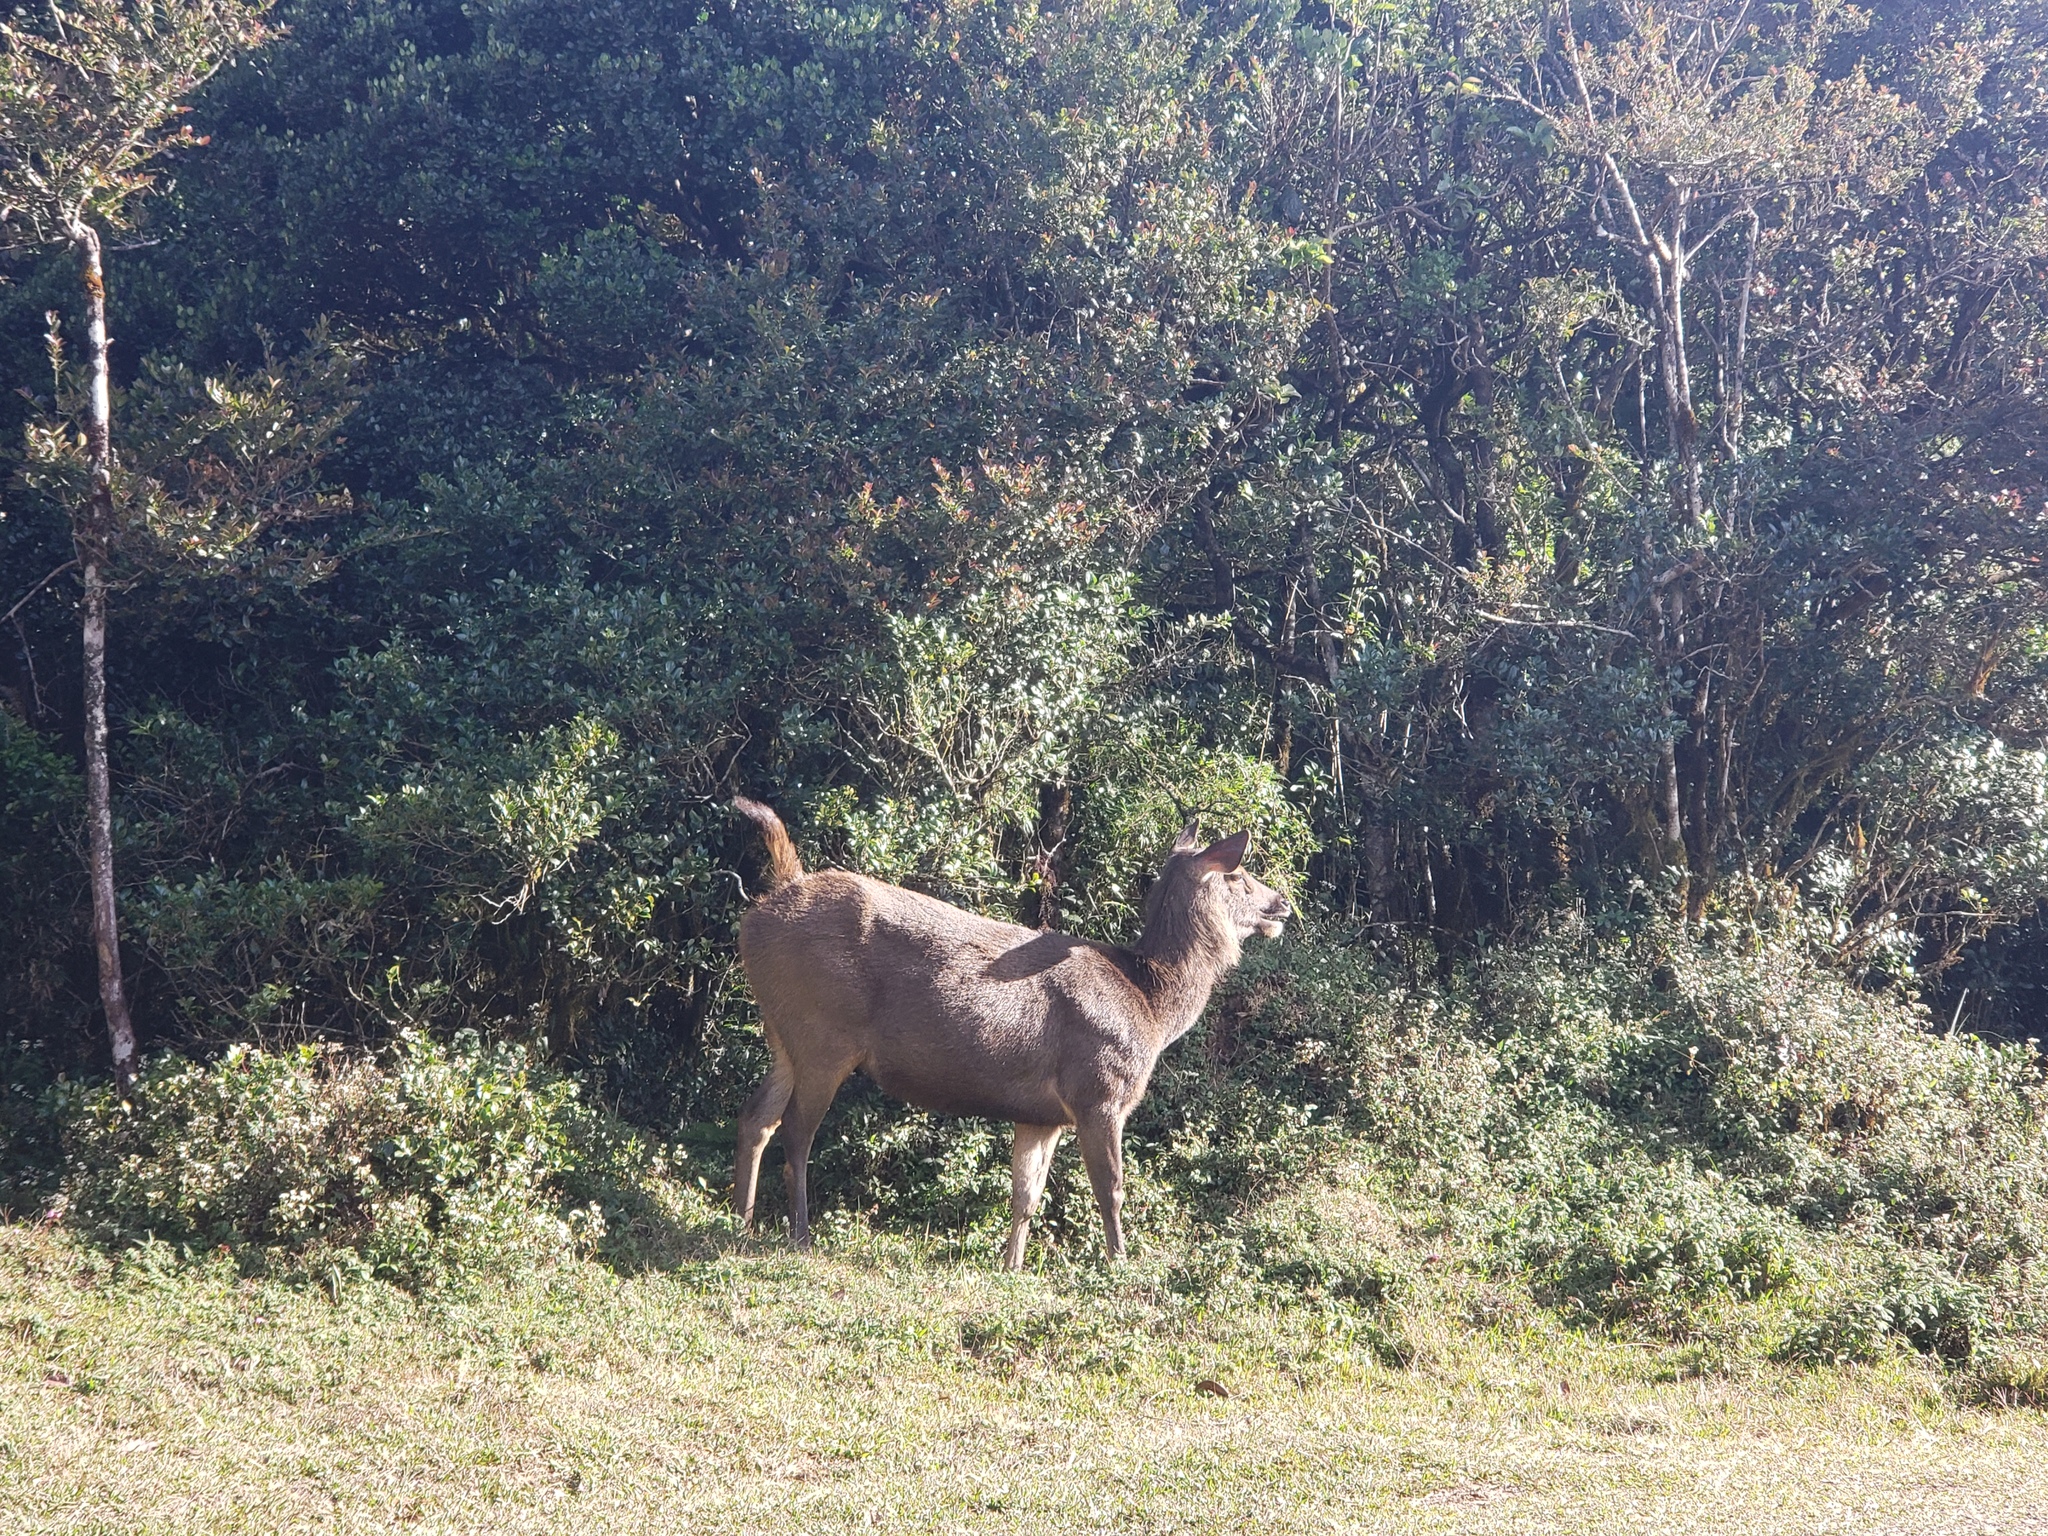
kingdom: Animalia
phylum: Chordata
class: Mammalia
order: Artiodactyla
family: Cervidae
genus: Rusa
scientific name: Rusa unicolor
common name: Sambar
